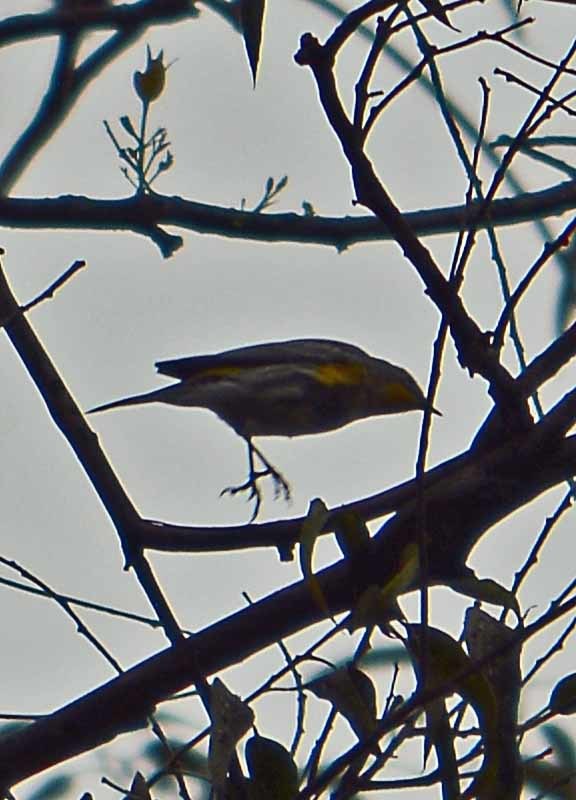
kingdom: Animalia
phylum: Chordata
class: Aves
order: Passeriformes
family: Parulidae
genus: Setophaga
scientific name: Setophaga auduboni
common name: Audubon's warbler
